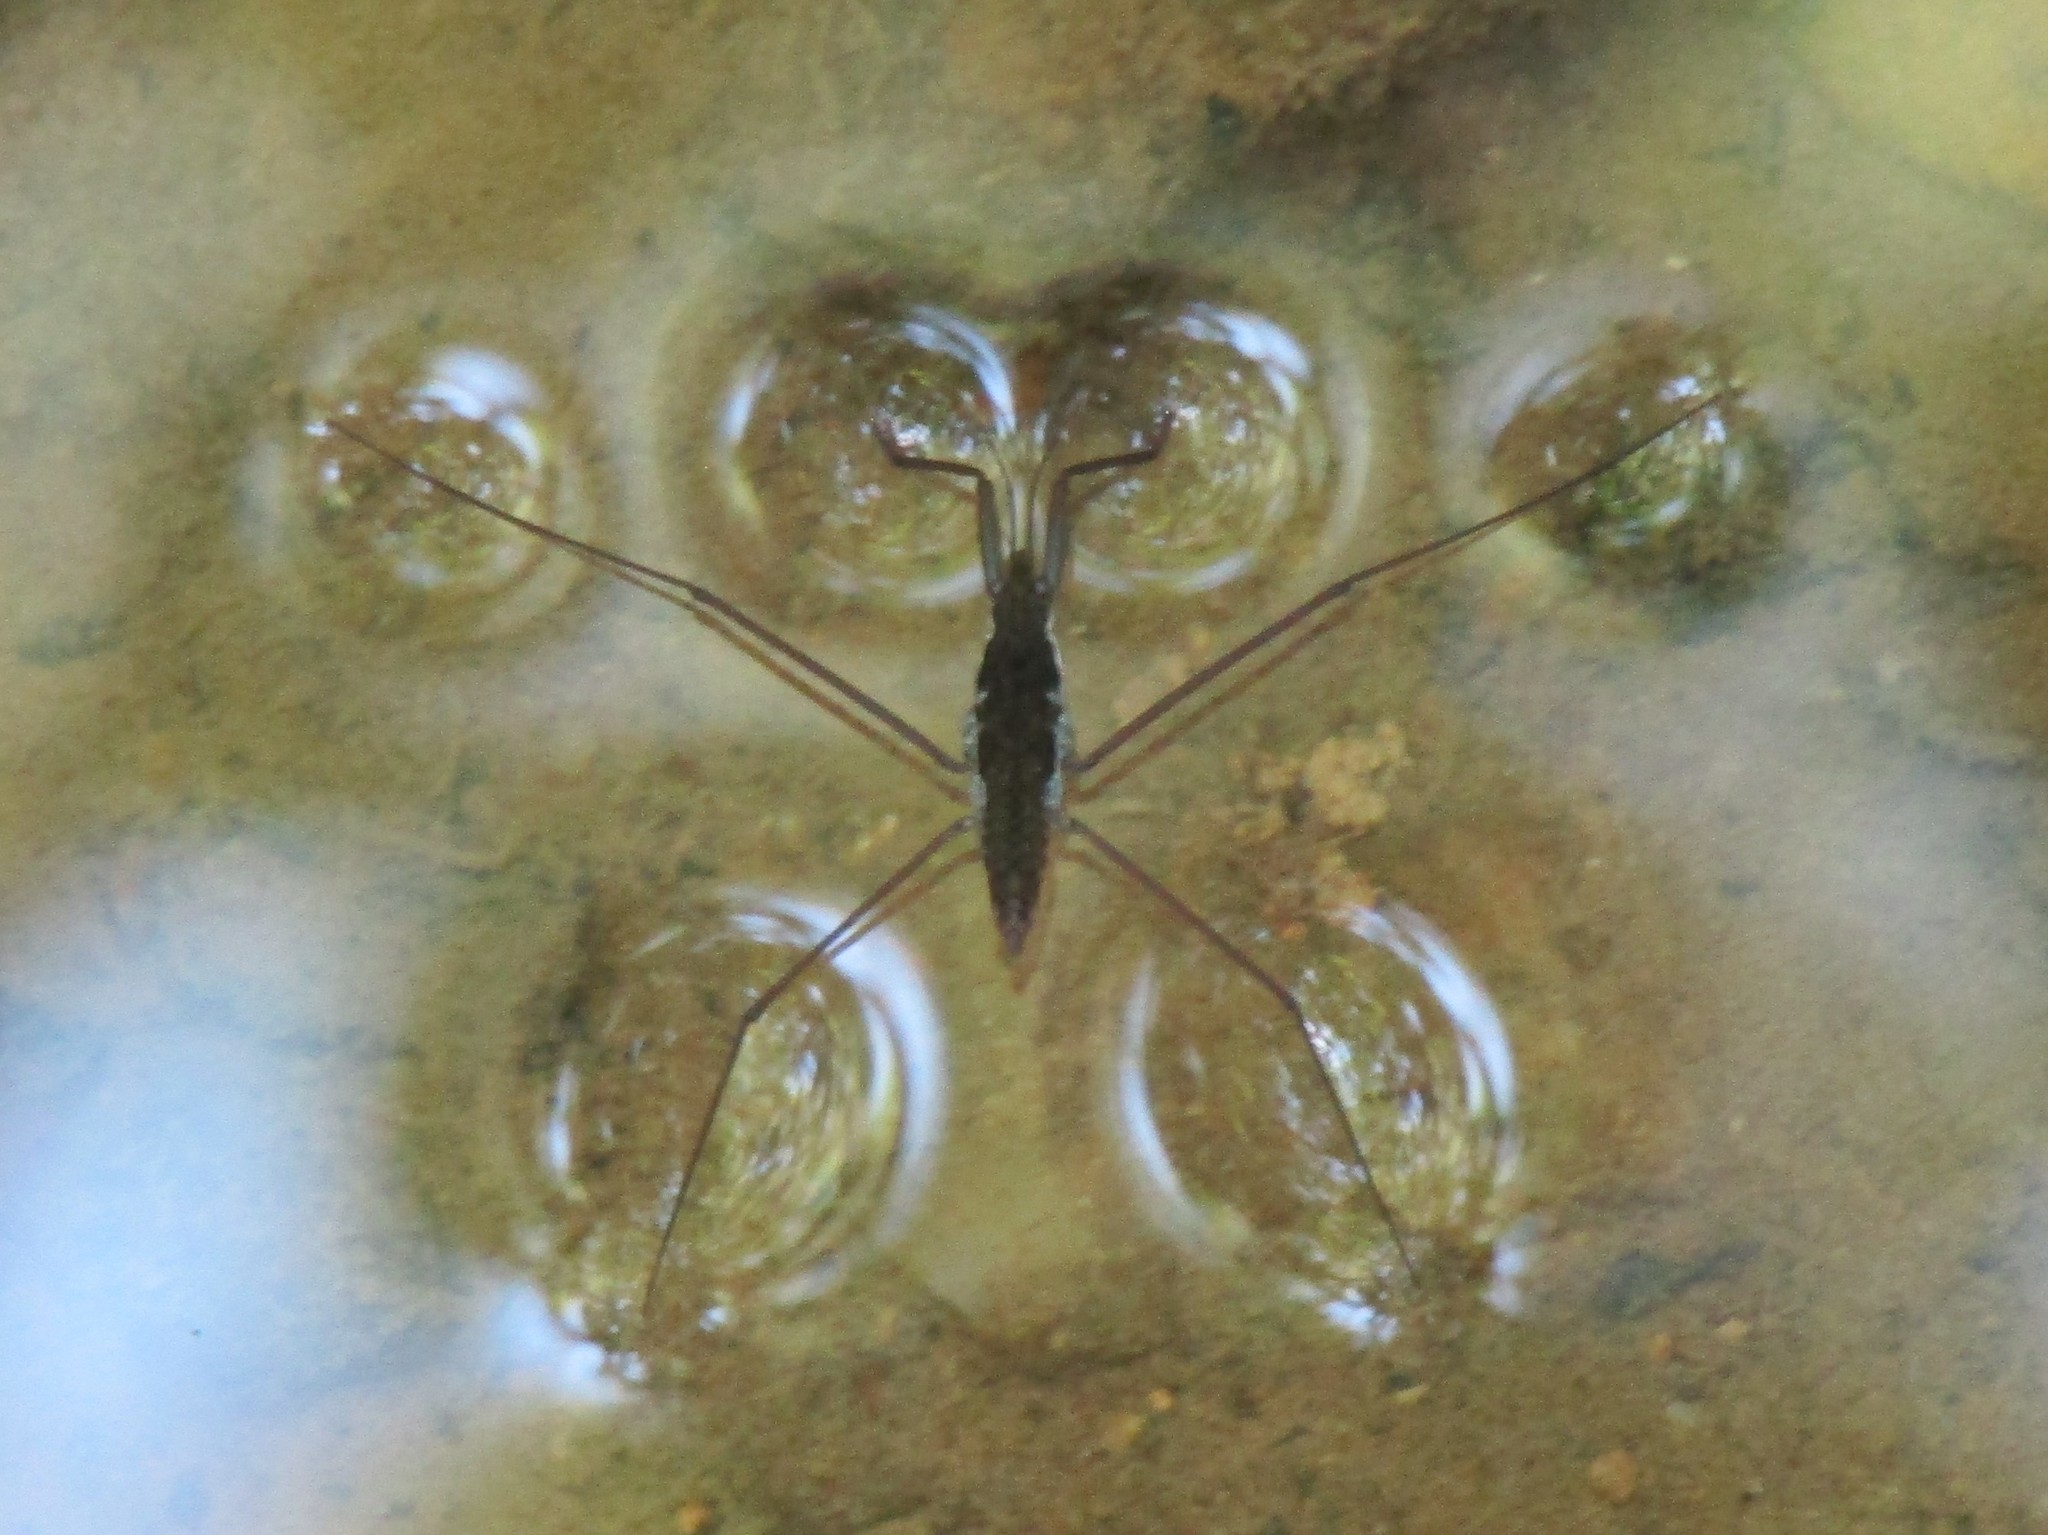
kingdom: Animalia
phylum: Arthropoda
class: Insecta
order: Hemiptera
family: Gerridae
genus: Aquarius
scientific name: Aquarius
